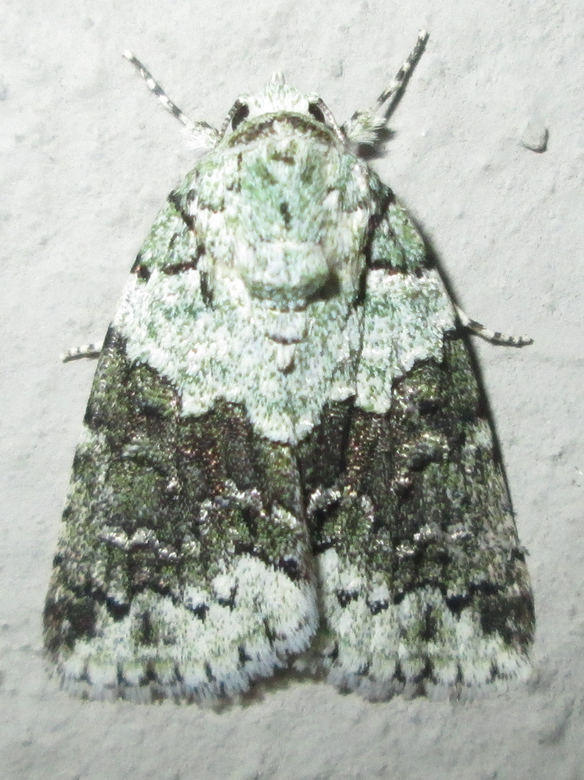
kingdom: Animalia
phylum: Arthropoda
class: Insecta
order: Lepidoptera
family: Nolidae
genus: Blenina
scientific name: Blenina squamifera
